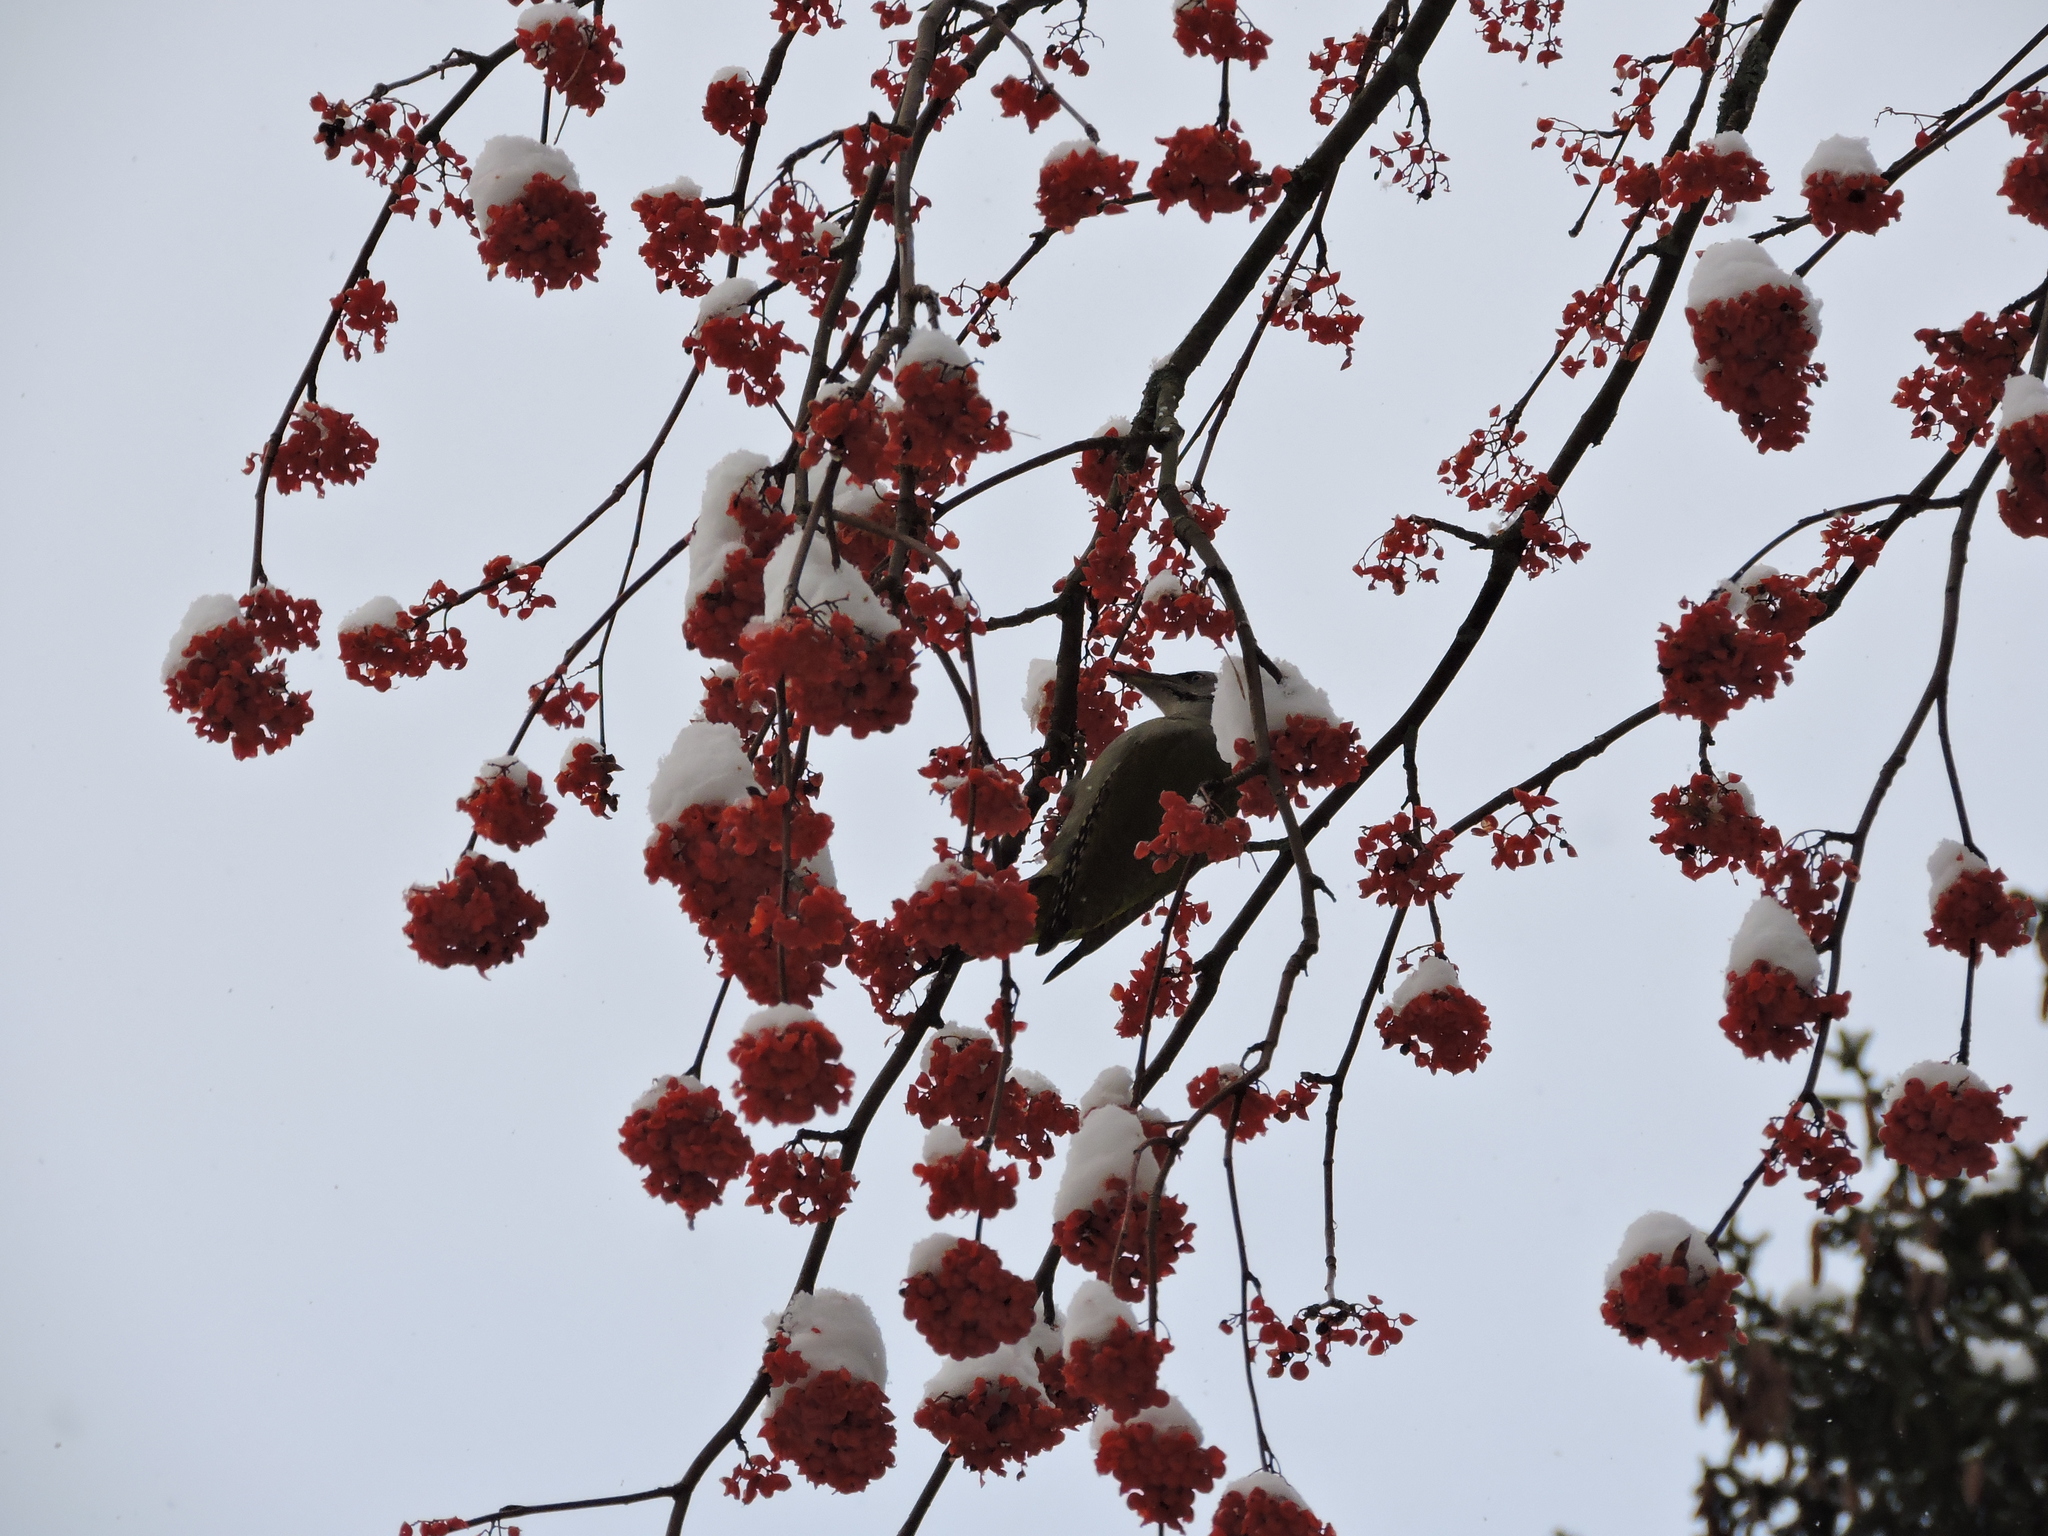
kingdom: Animalia
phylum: Chordata
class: Aves
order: Piciformes
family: Picidae
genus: Picus
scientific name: Picus canus
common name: Grey-headed woodpecker
